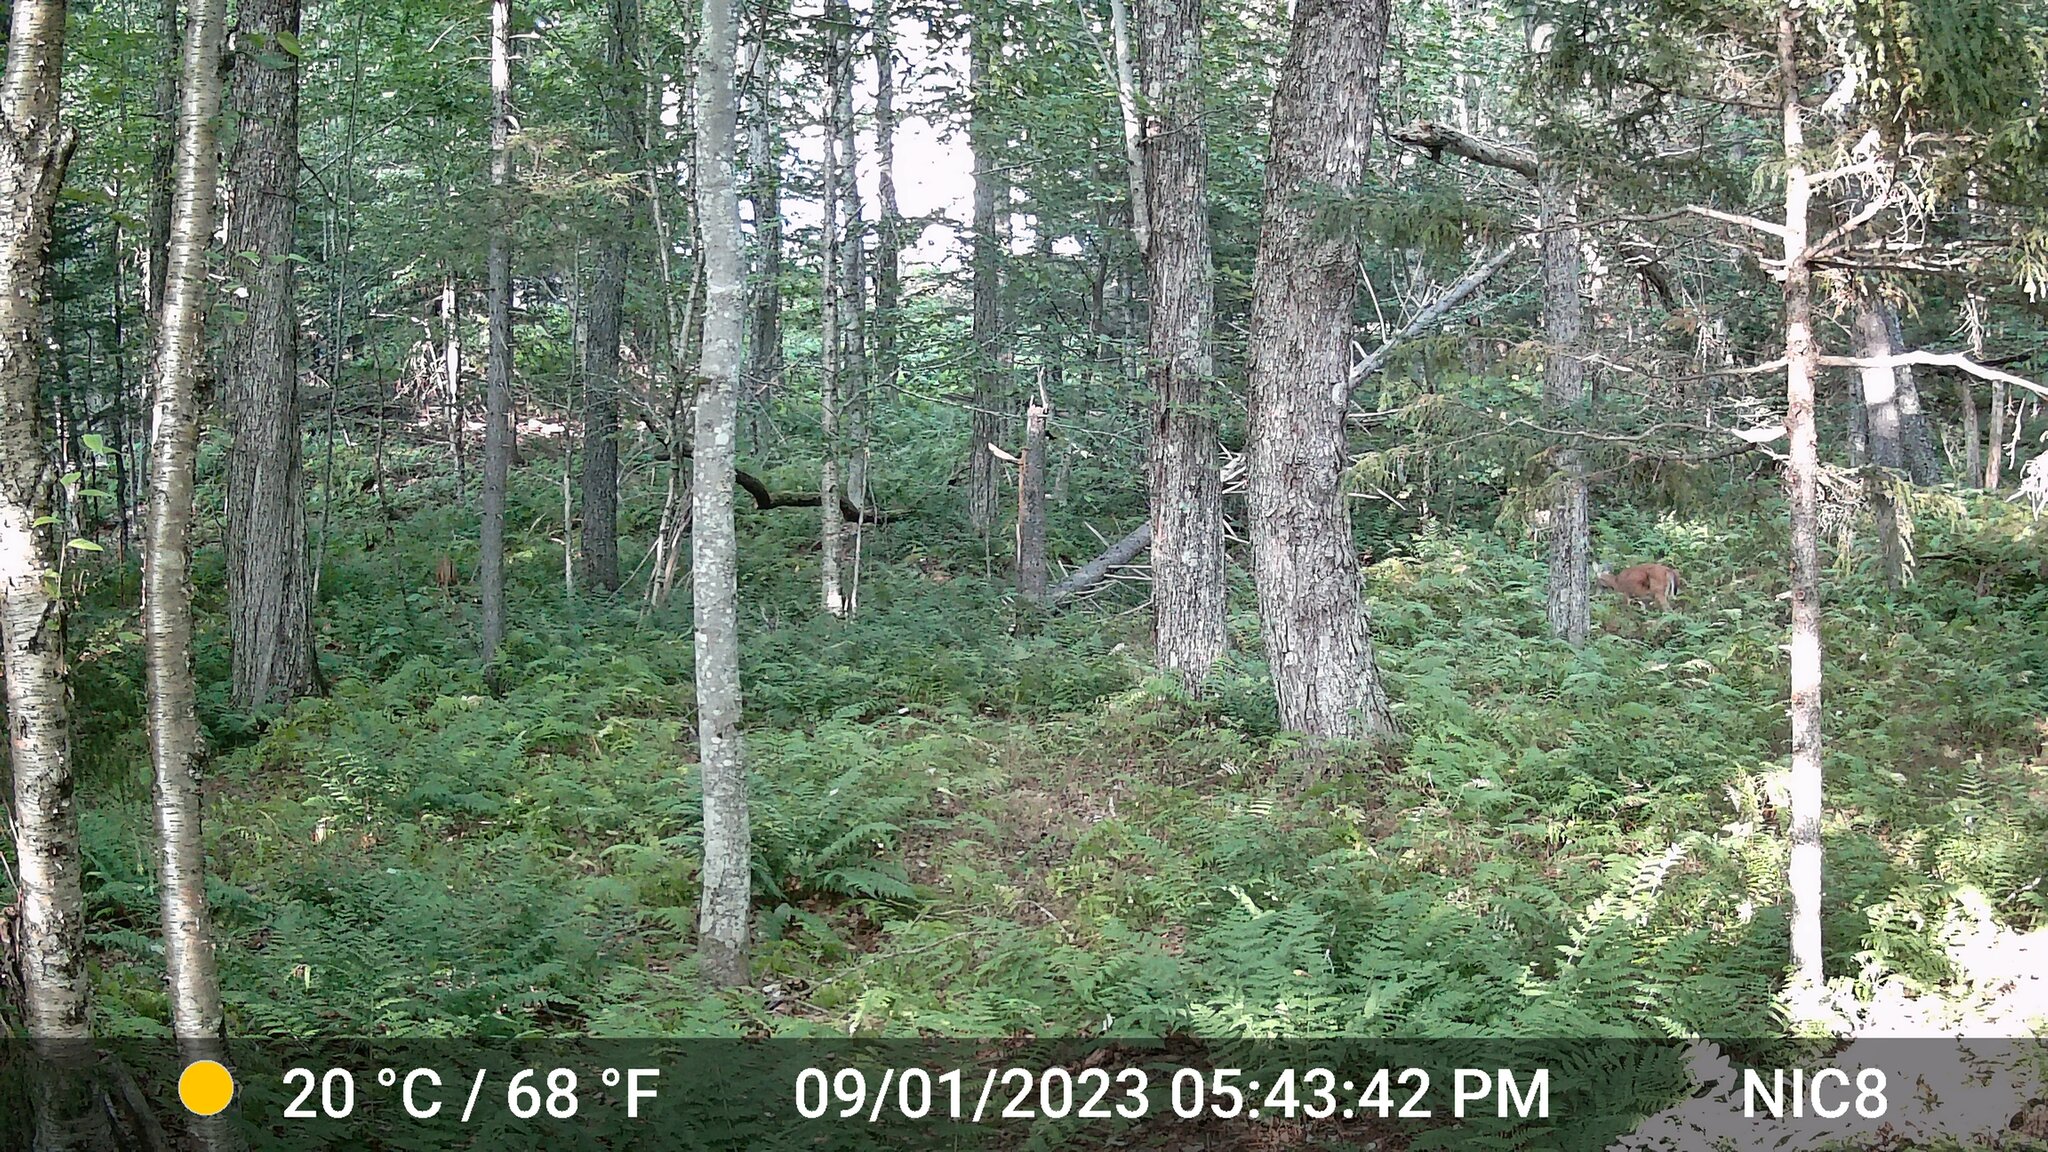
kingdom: Animalia
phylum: Chordata
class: Mammalia
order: Artiodactyla
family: Cervidae
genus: Odocoileus
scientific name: Odocoileus virginianus
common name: White-tailed deer
